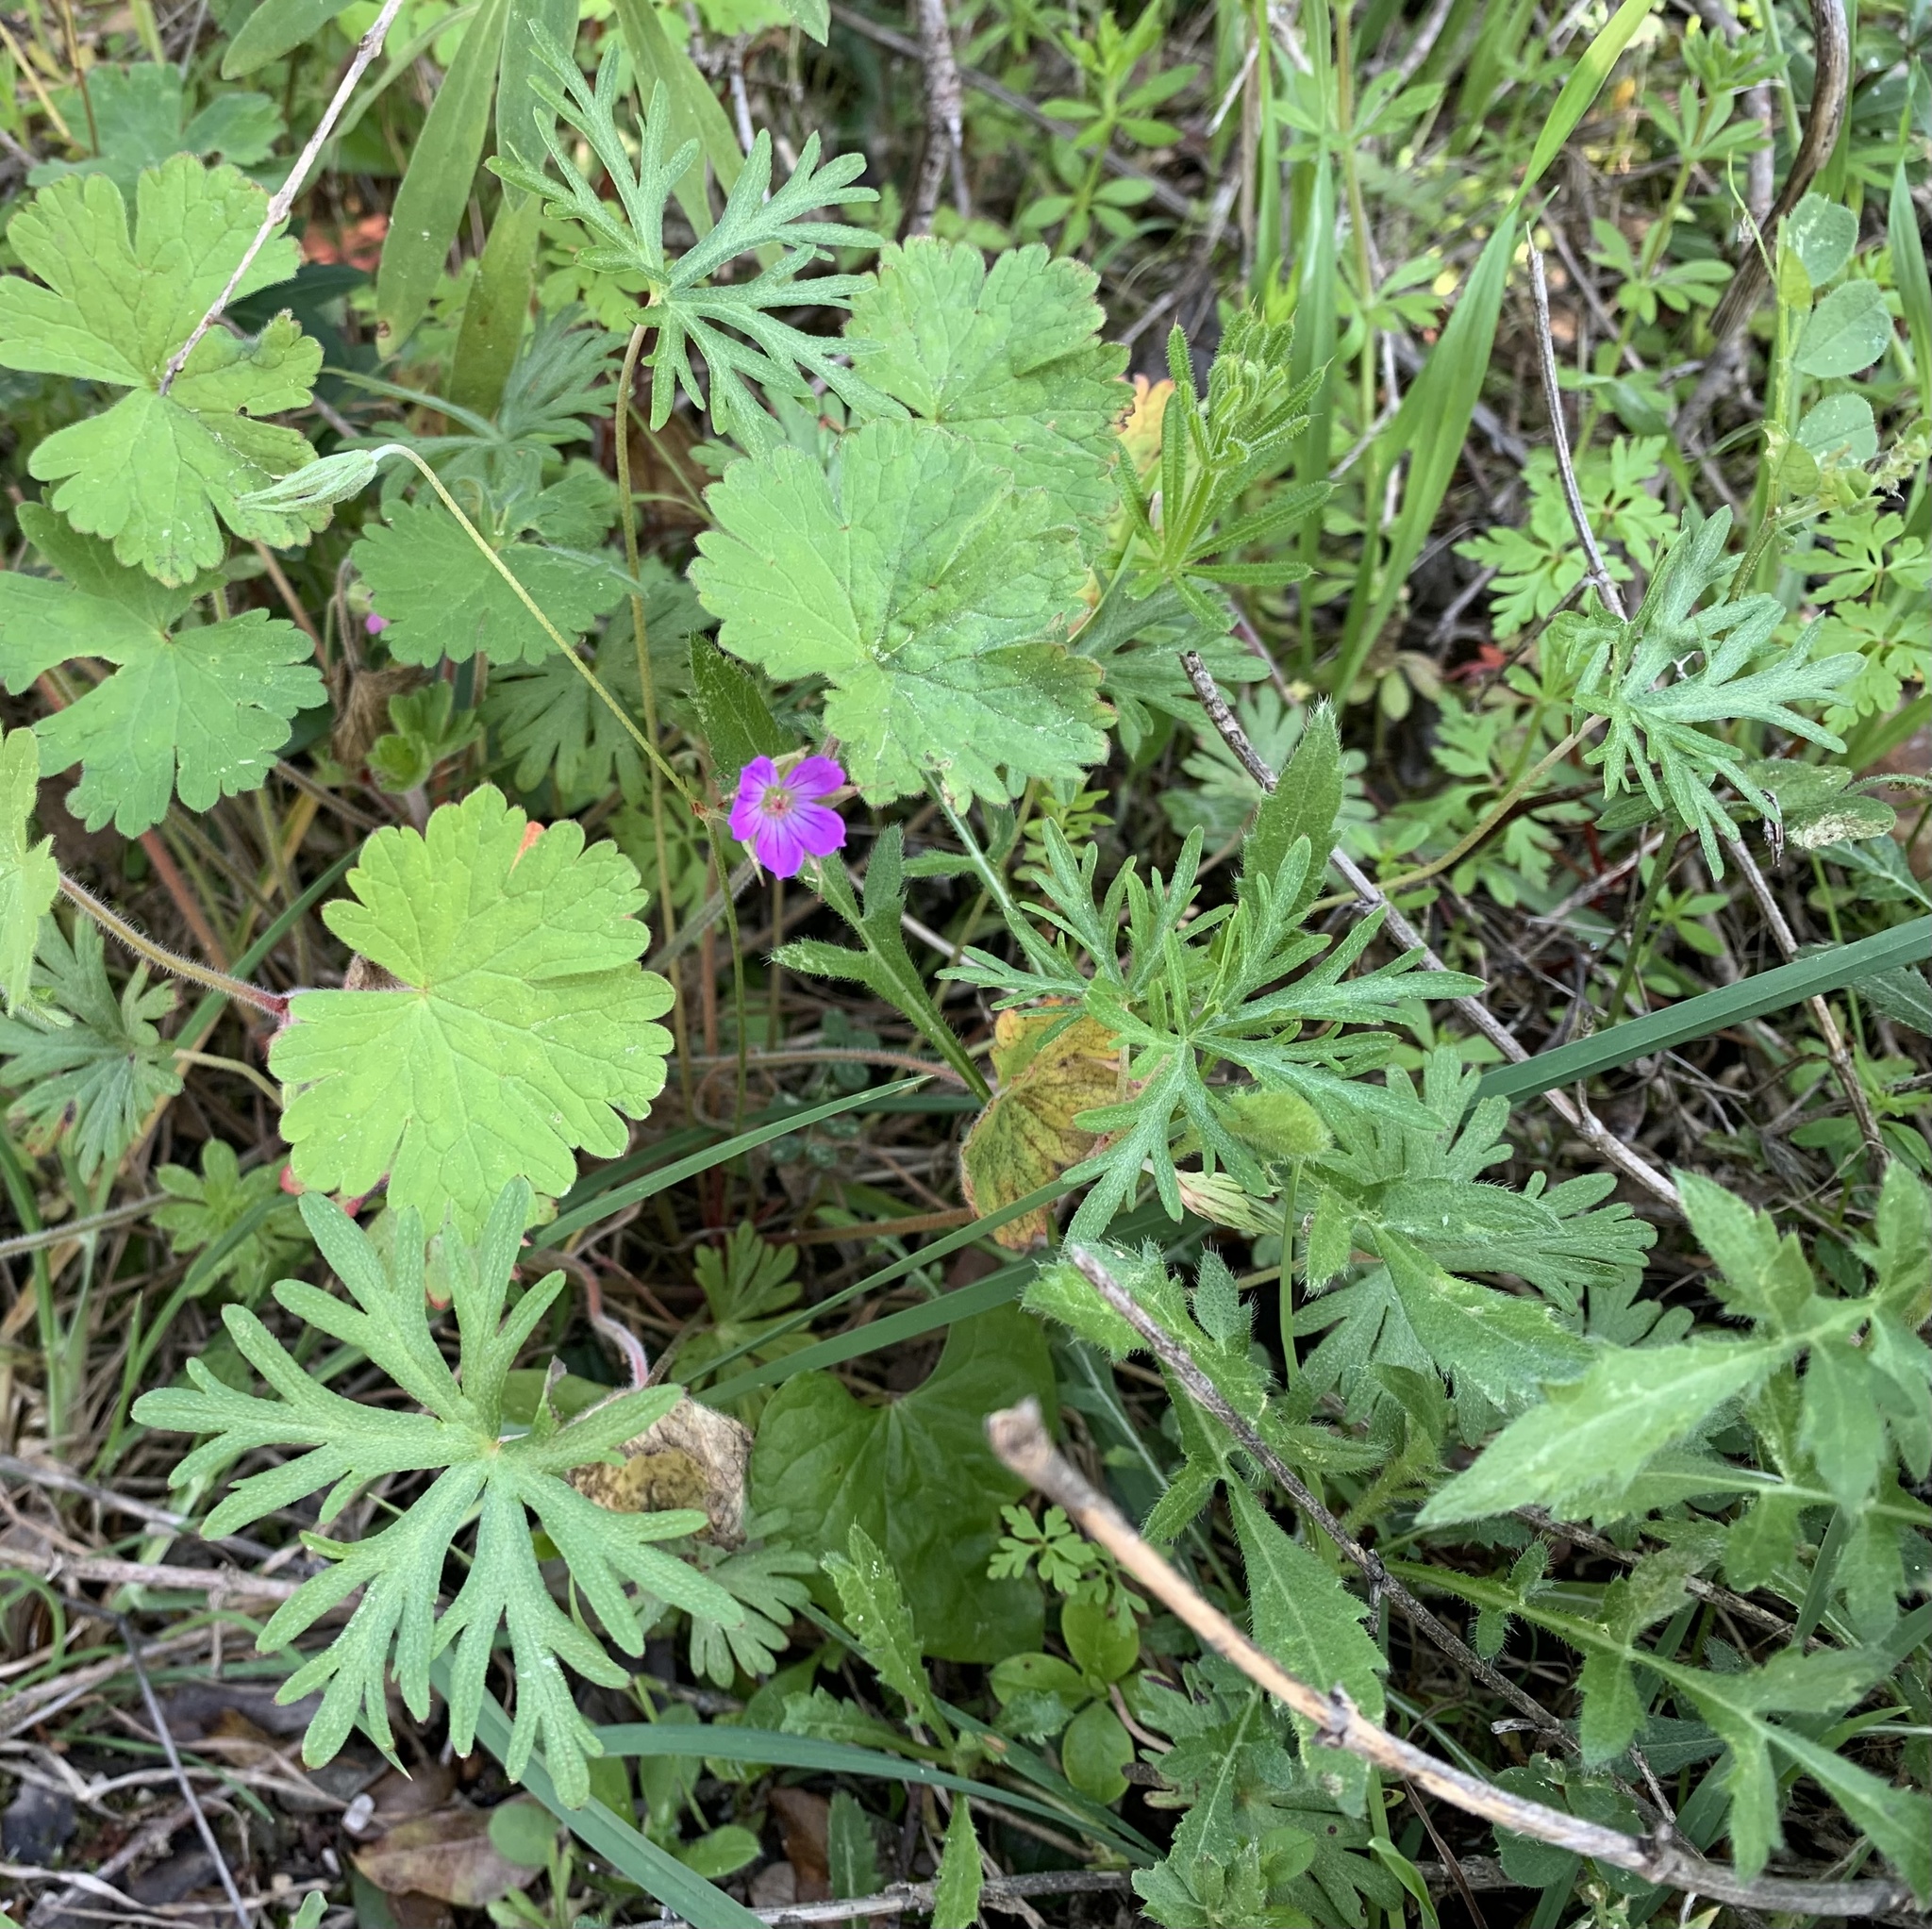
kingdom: Plantae
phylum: Tracheophyta
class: Magnoliopsida
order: Geraniales
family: Geraniaceae
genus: Geranium
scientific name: Geranium columbinum
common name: Long-stalked crane's-bill
